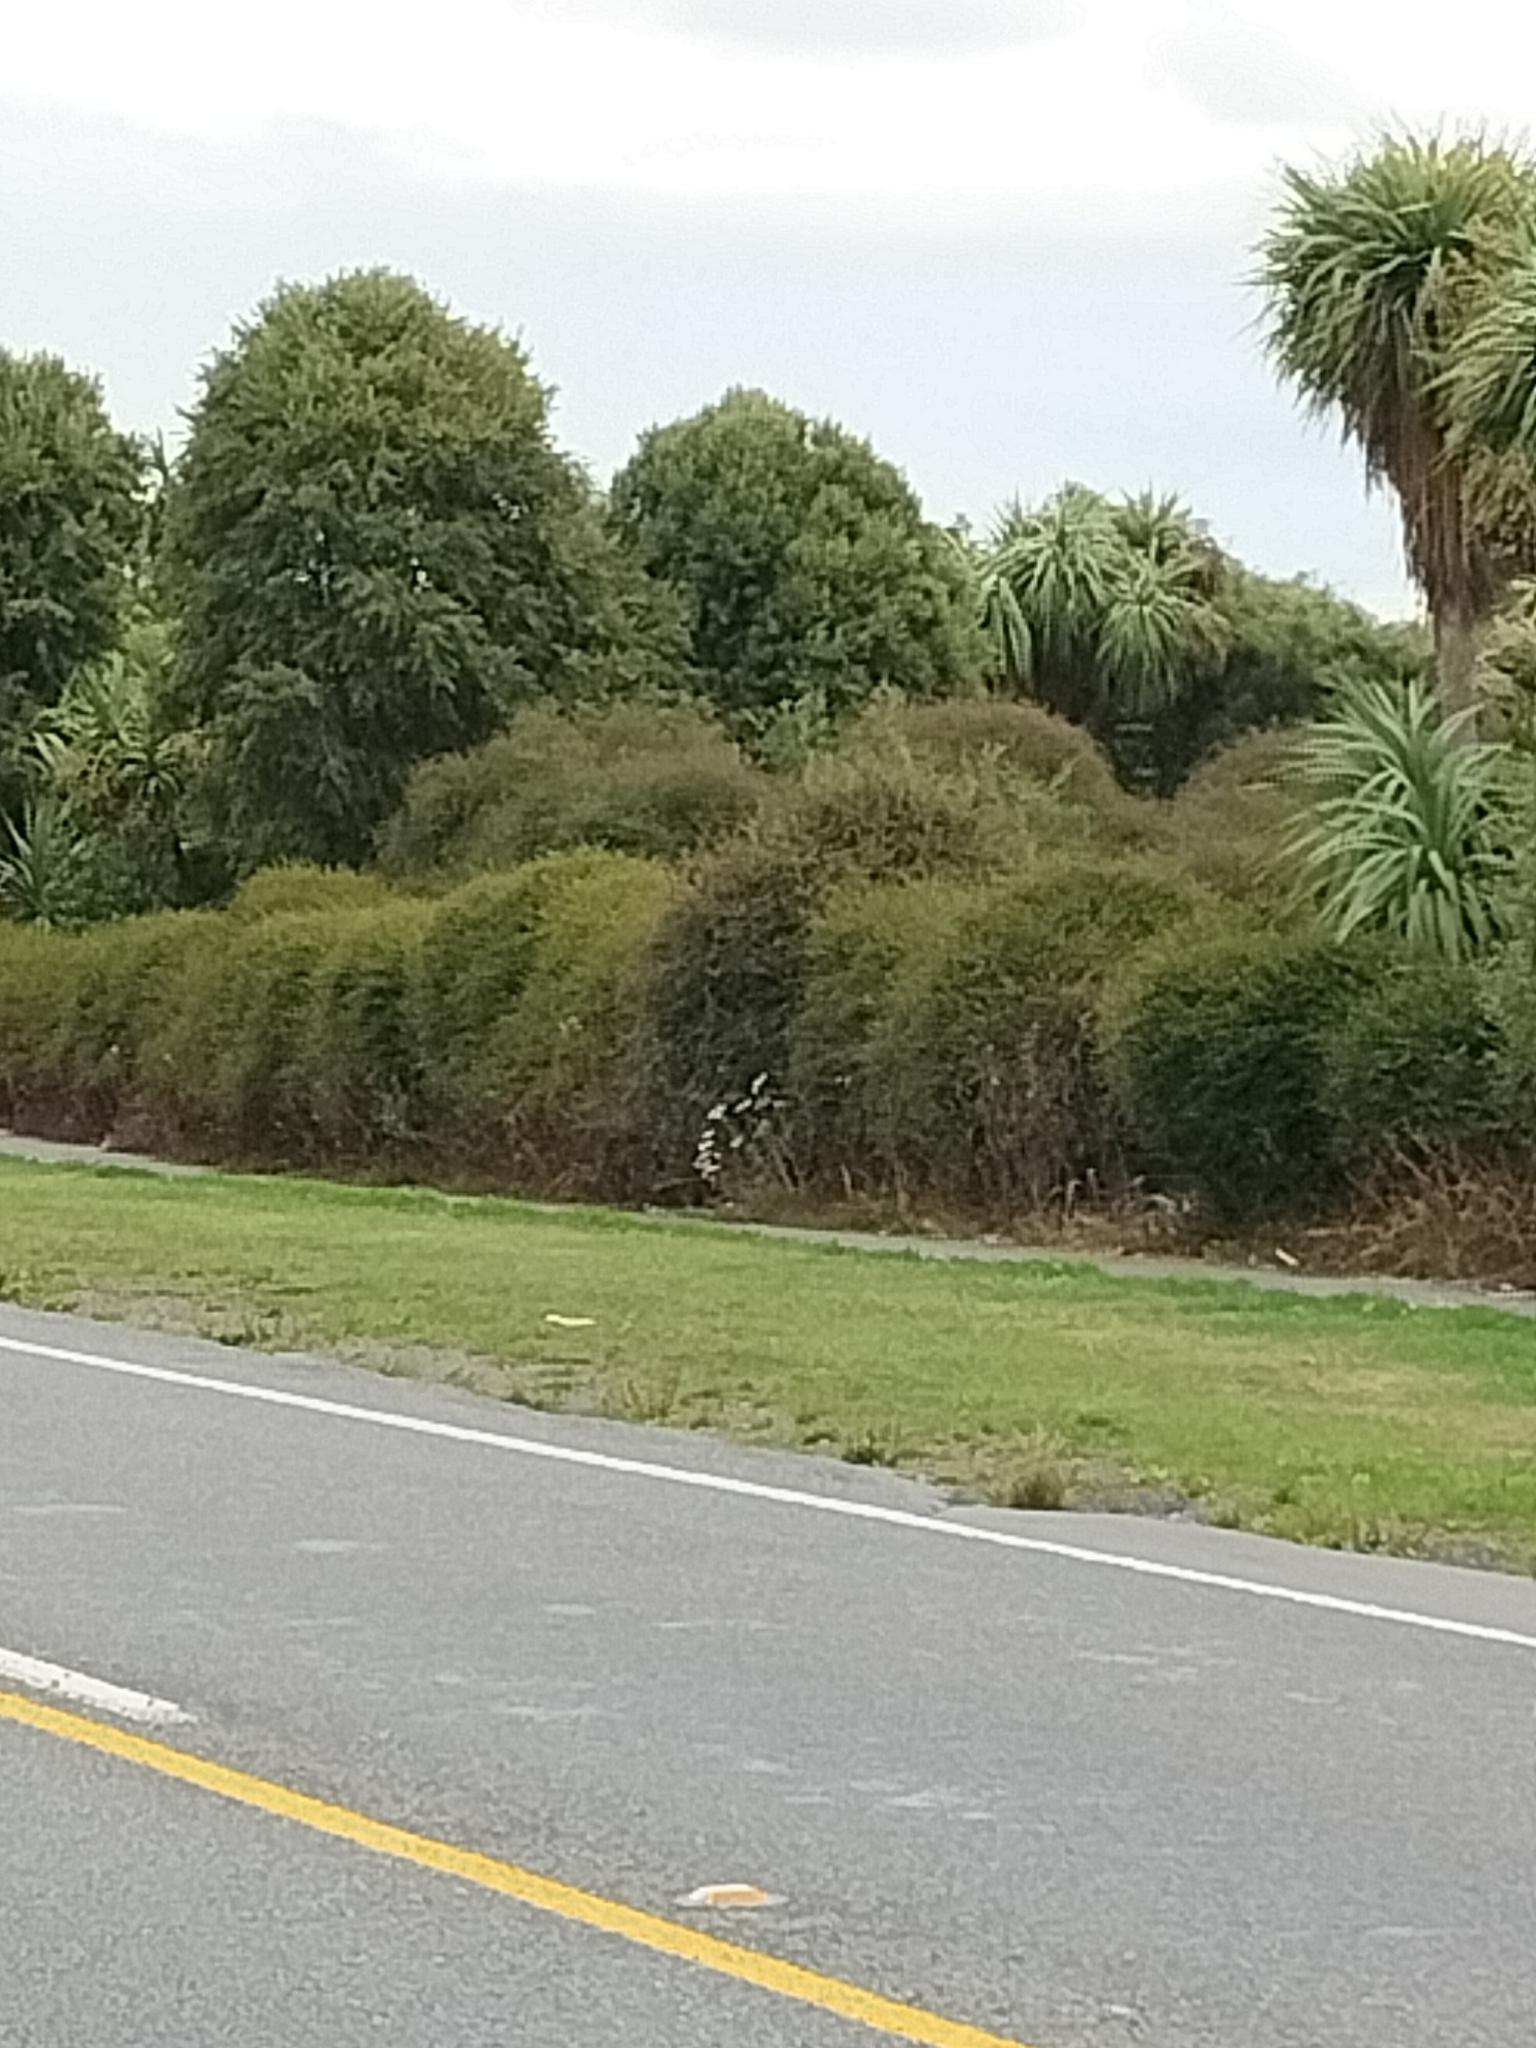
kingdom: Plantae
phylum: Tracheophyta
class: Magnoliopsida
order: Caryophyllales
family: Polygonaceae
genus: Muehlenbeckia
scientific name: Muehlenbeckia complexa
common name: Wireplant
